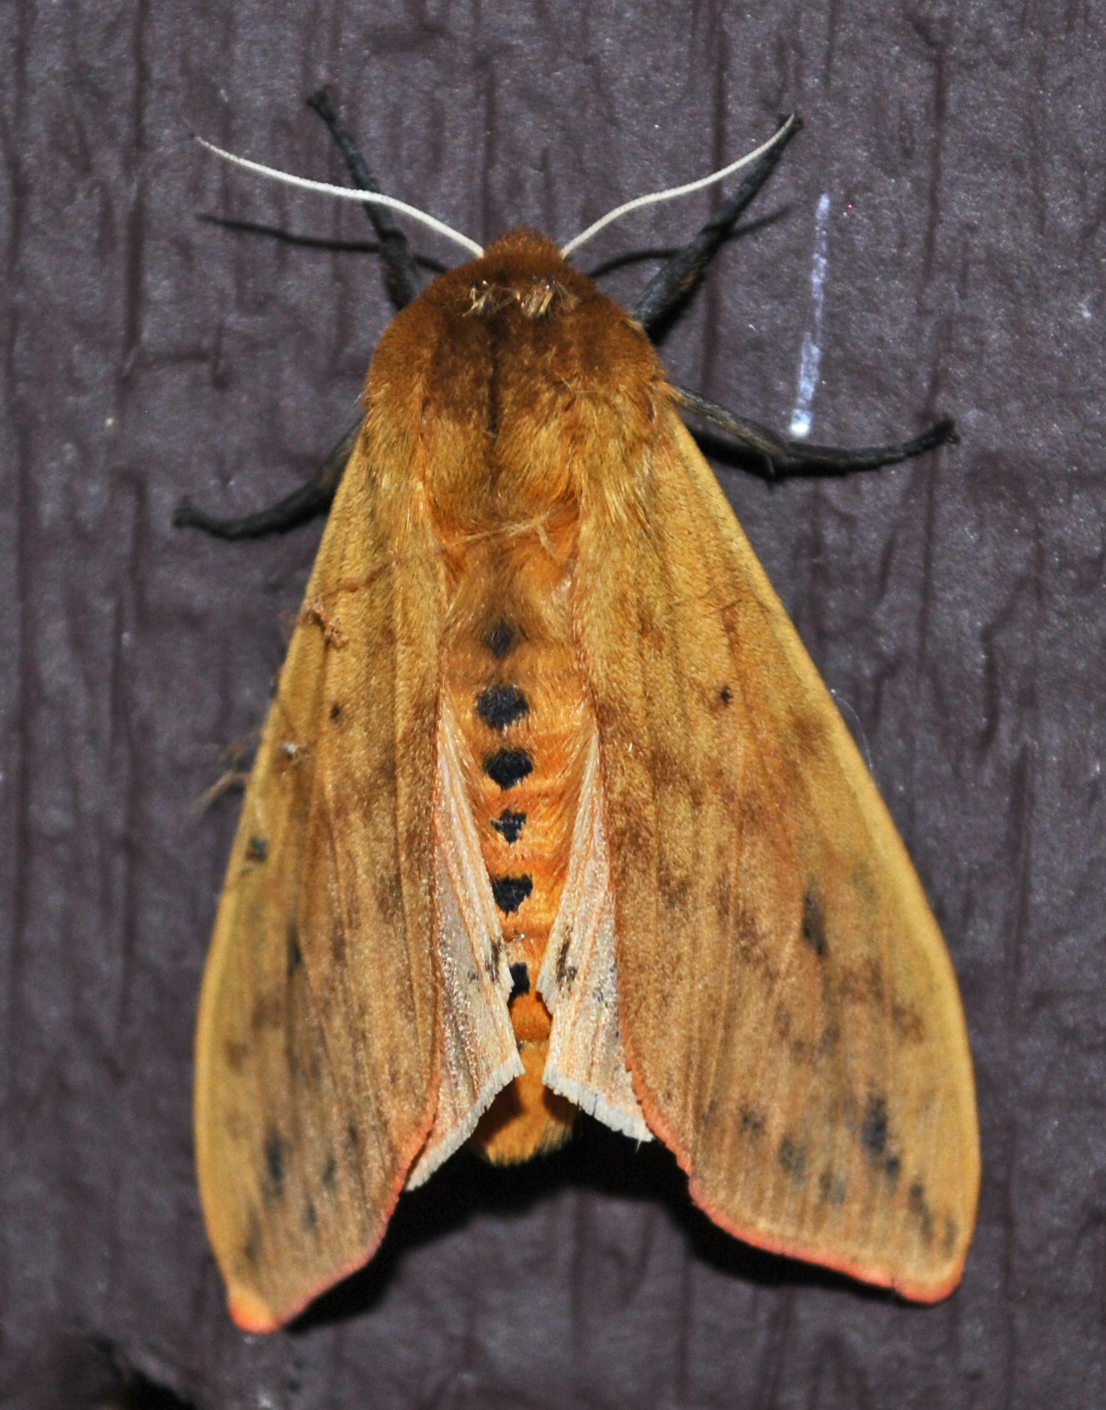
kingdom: Animalia
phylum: Arthropoda
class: Insecta
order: Lepidoptera
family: Erebidae
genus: Pyrrharctia
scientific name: Pyrrharctia isabella
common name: Isabella tiger moth
